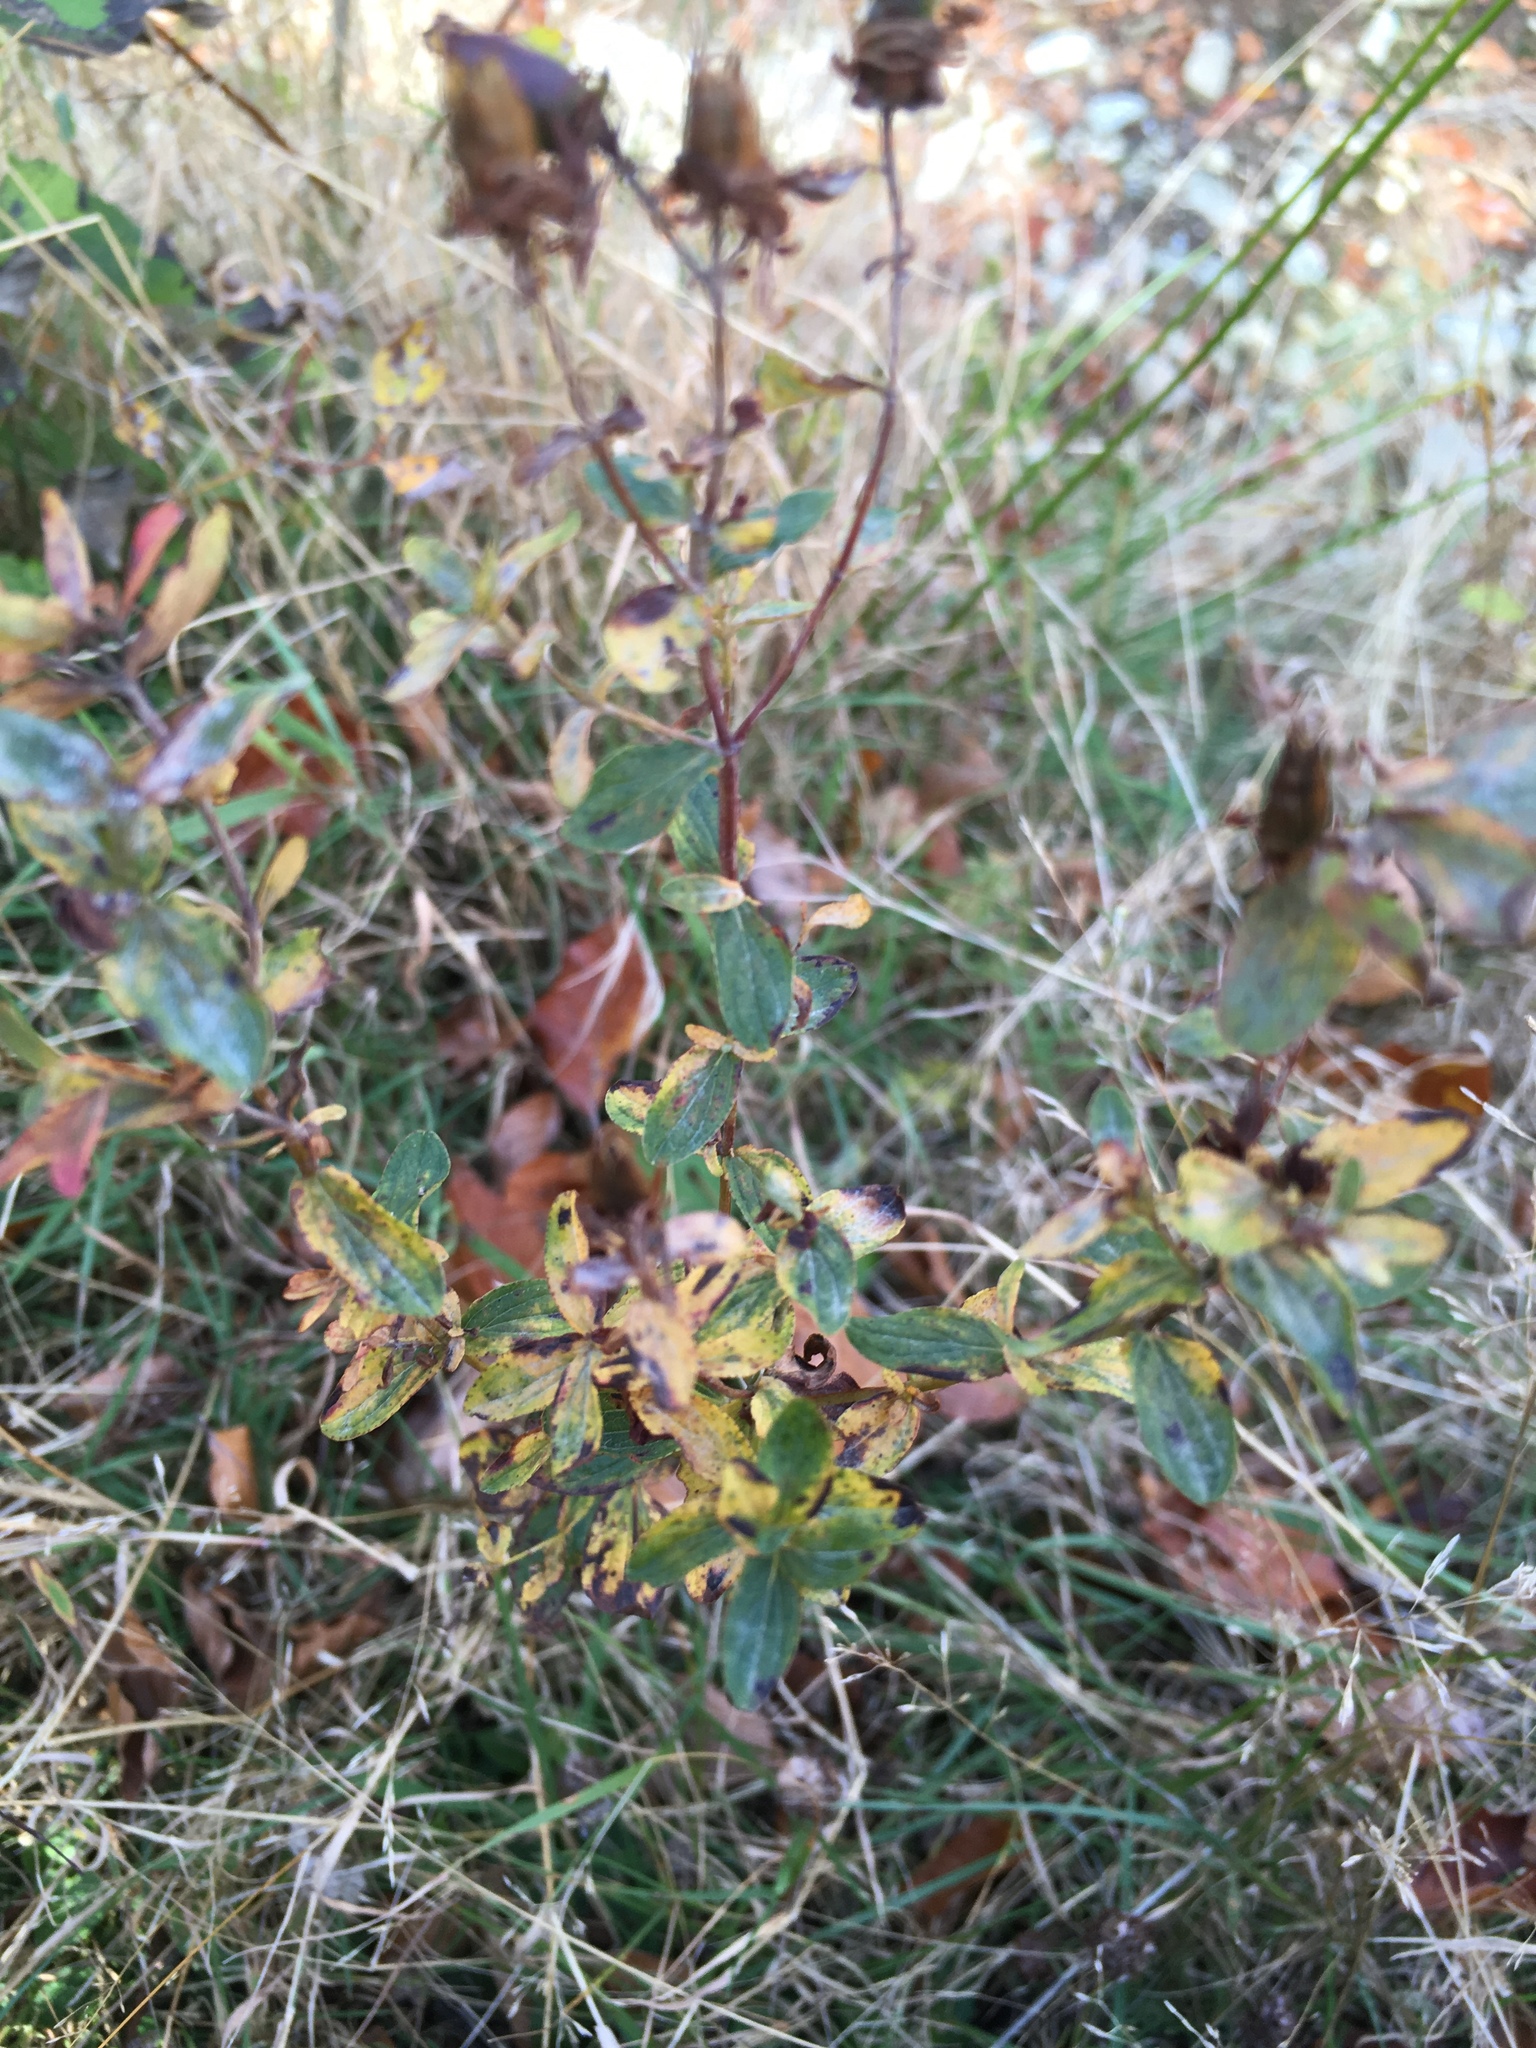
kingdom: Plantae
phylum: Tracheophyta
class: Magnoliopsida
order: Malpighiales
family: Hypericaceae
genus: Hypericum
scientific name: Hypericum perforatum
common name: Common st. johnswort
